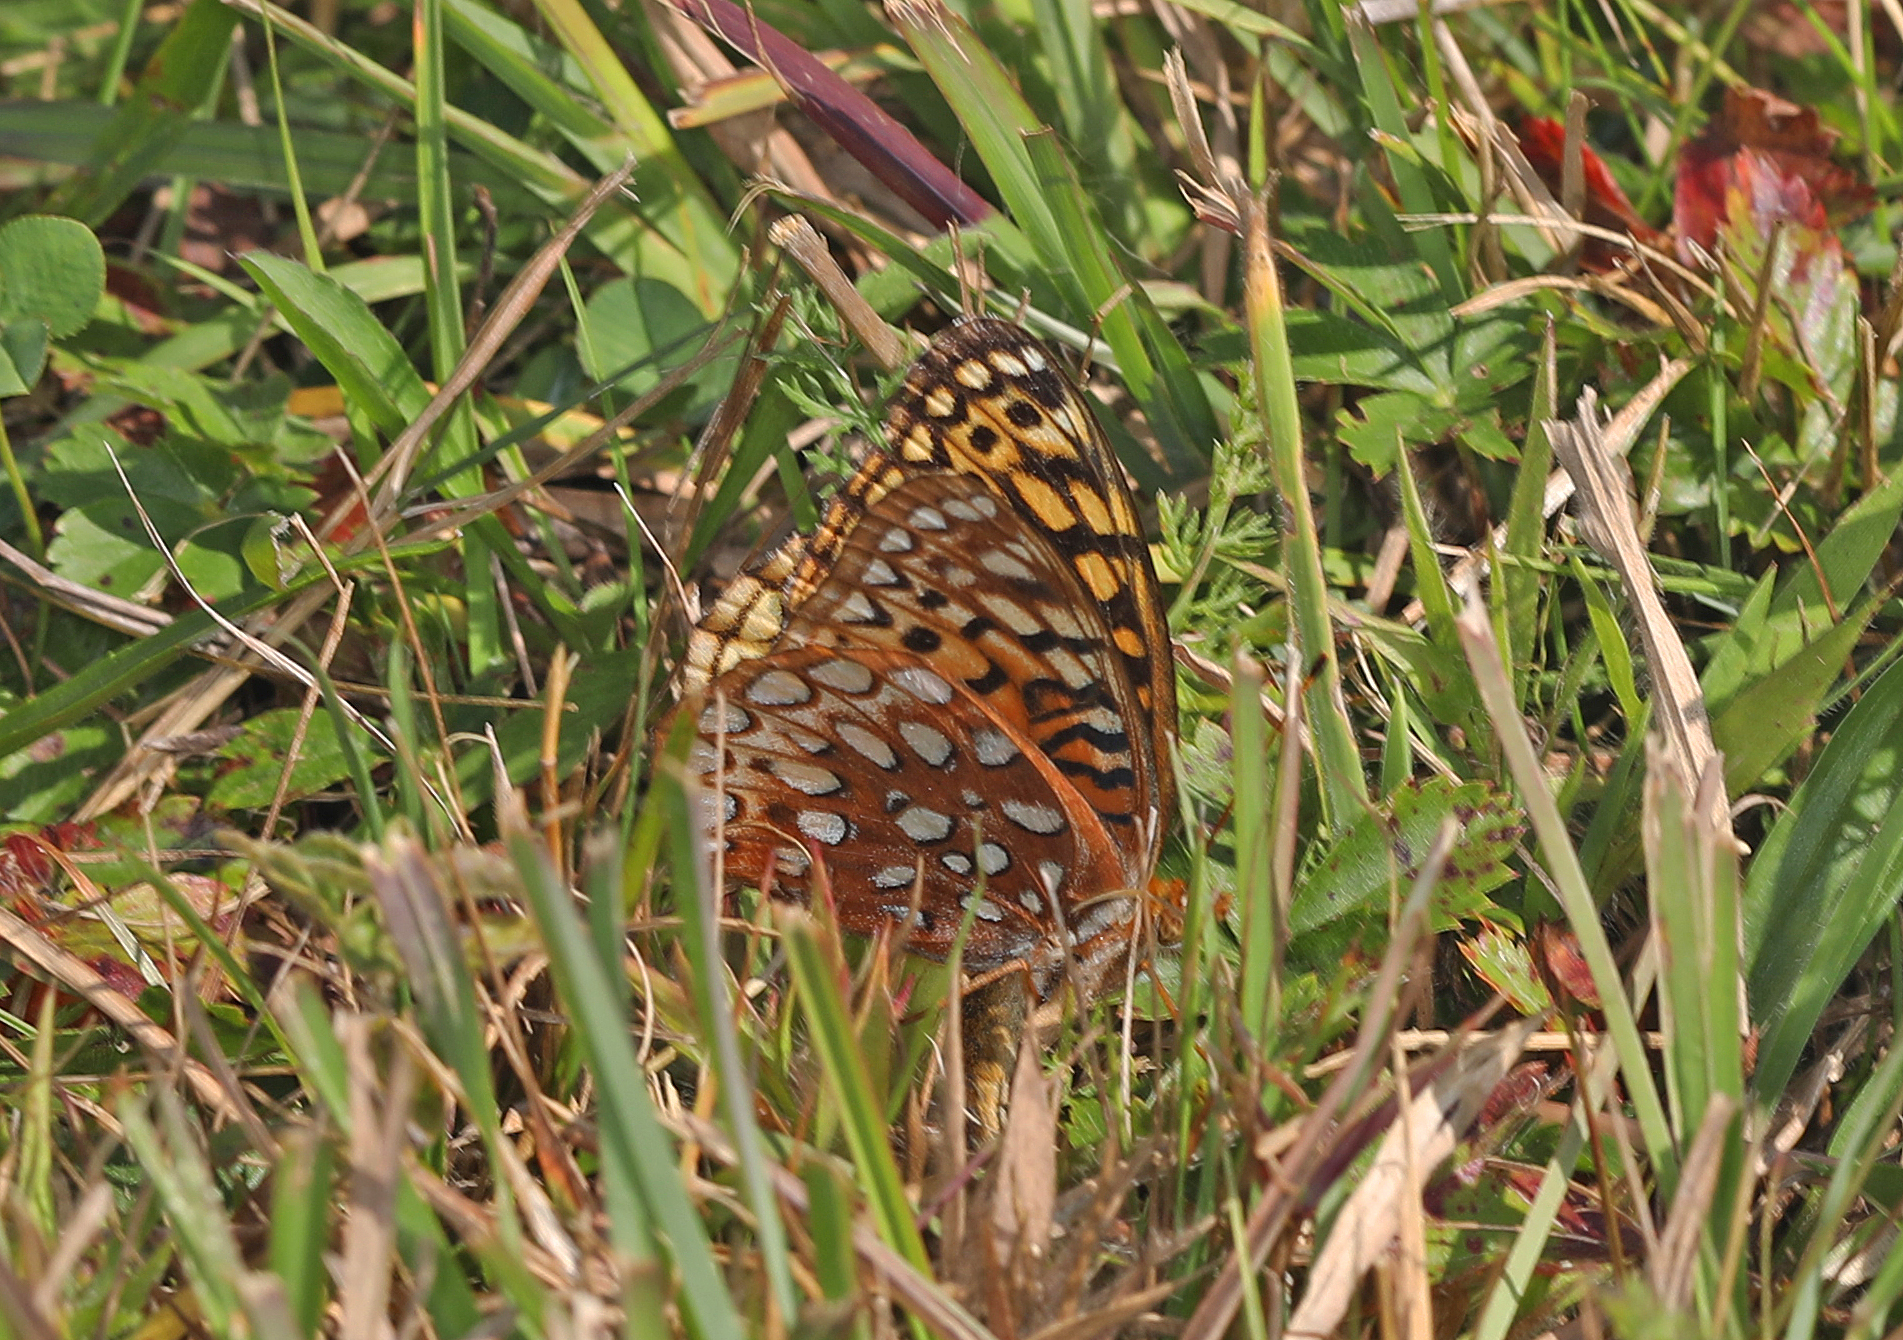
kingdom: Animalia
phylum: Arthropoda
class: Insecta
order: Lepidoptera
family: Nymphalidae
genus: Speyeria
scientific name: Speyeria aphrodite
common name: Aphrodite friitllary
